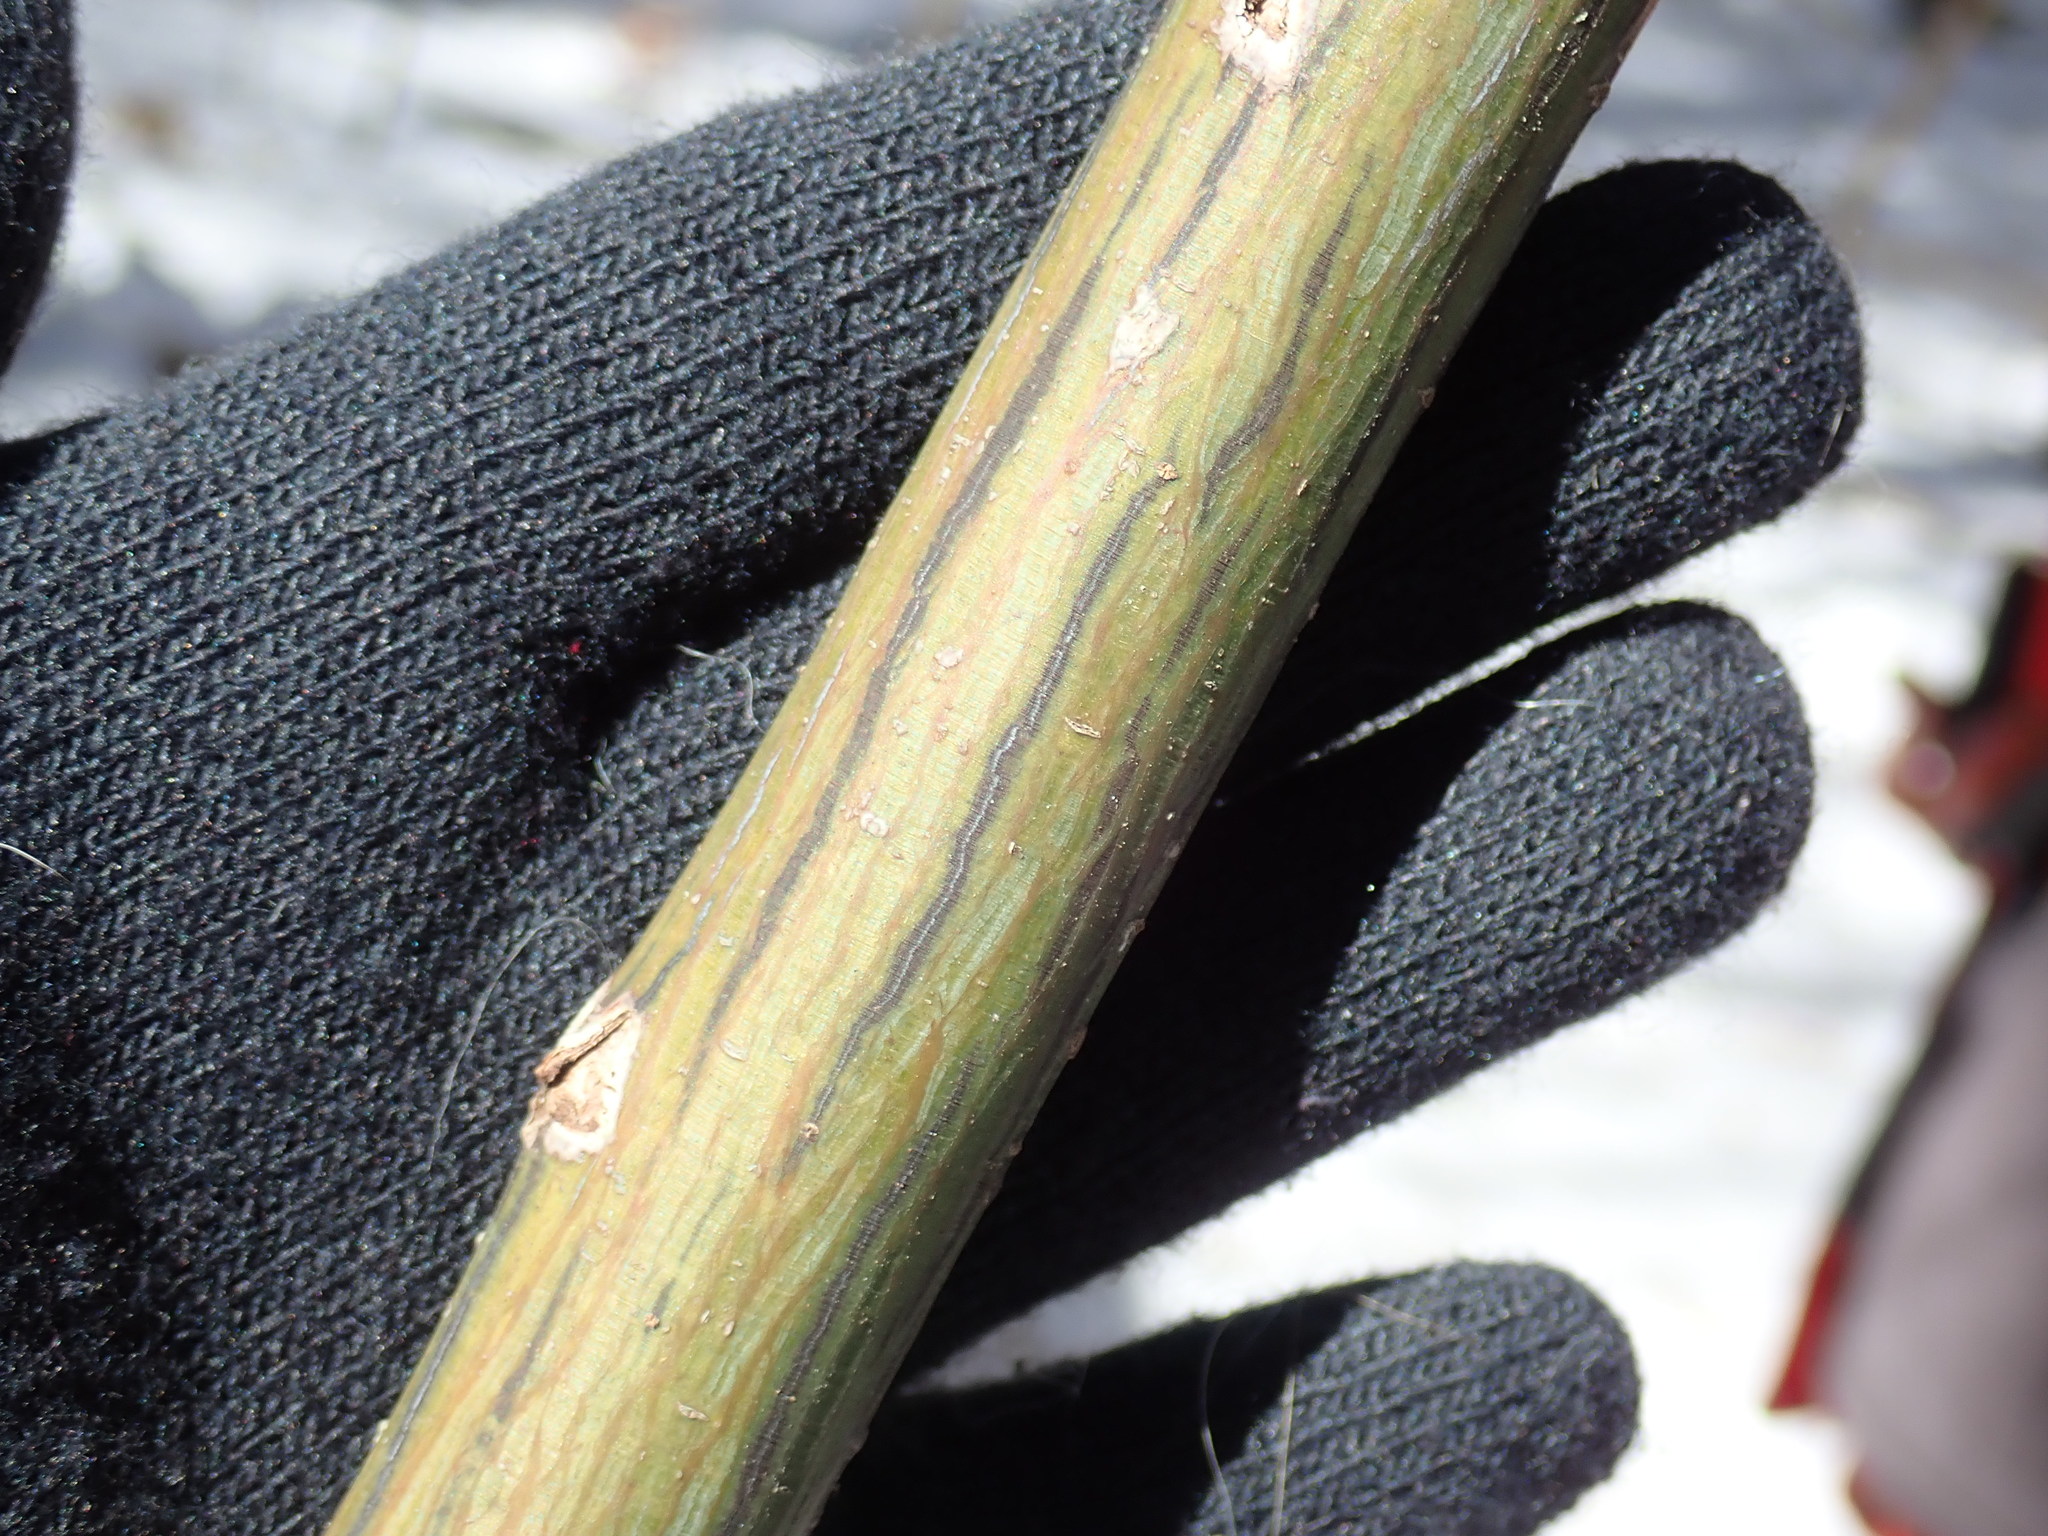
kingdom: Plantae
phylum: Tracheophyta
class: Magnoliopsida
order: Sapindales
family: Sapindaceae
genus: Acer
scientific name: Acer pensylvanicum
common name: Moosewood
